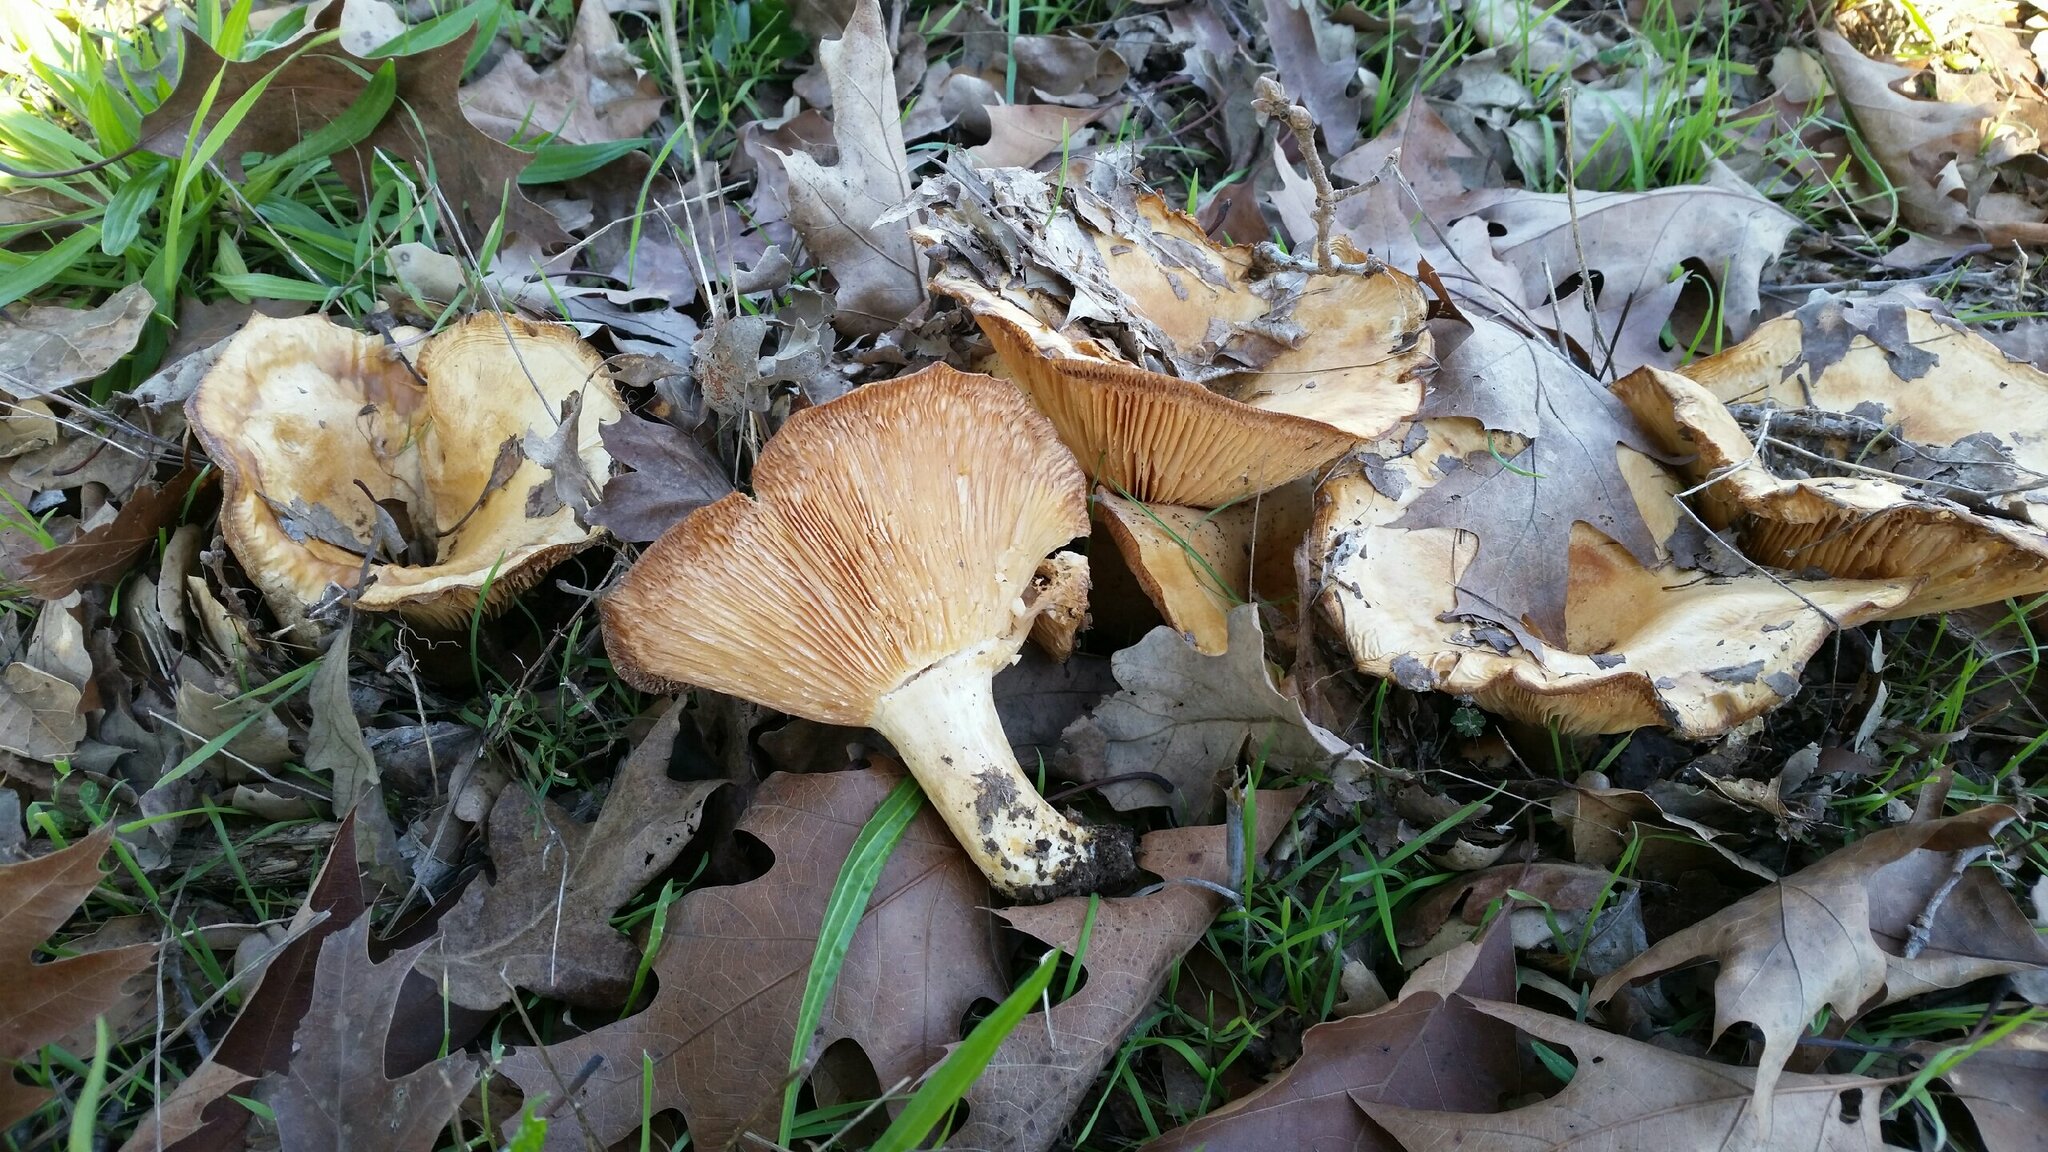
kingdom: Fungi
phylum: Basidiomycota
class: Agaricomycetes
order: Russulales
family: Russulaceae
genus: Lactarius
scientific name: Lactarius alnicola
